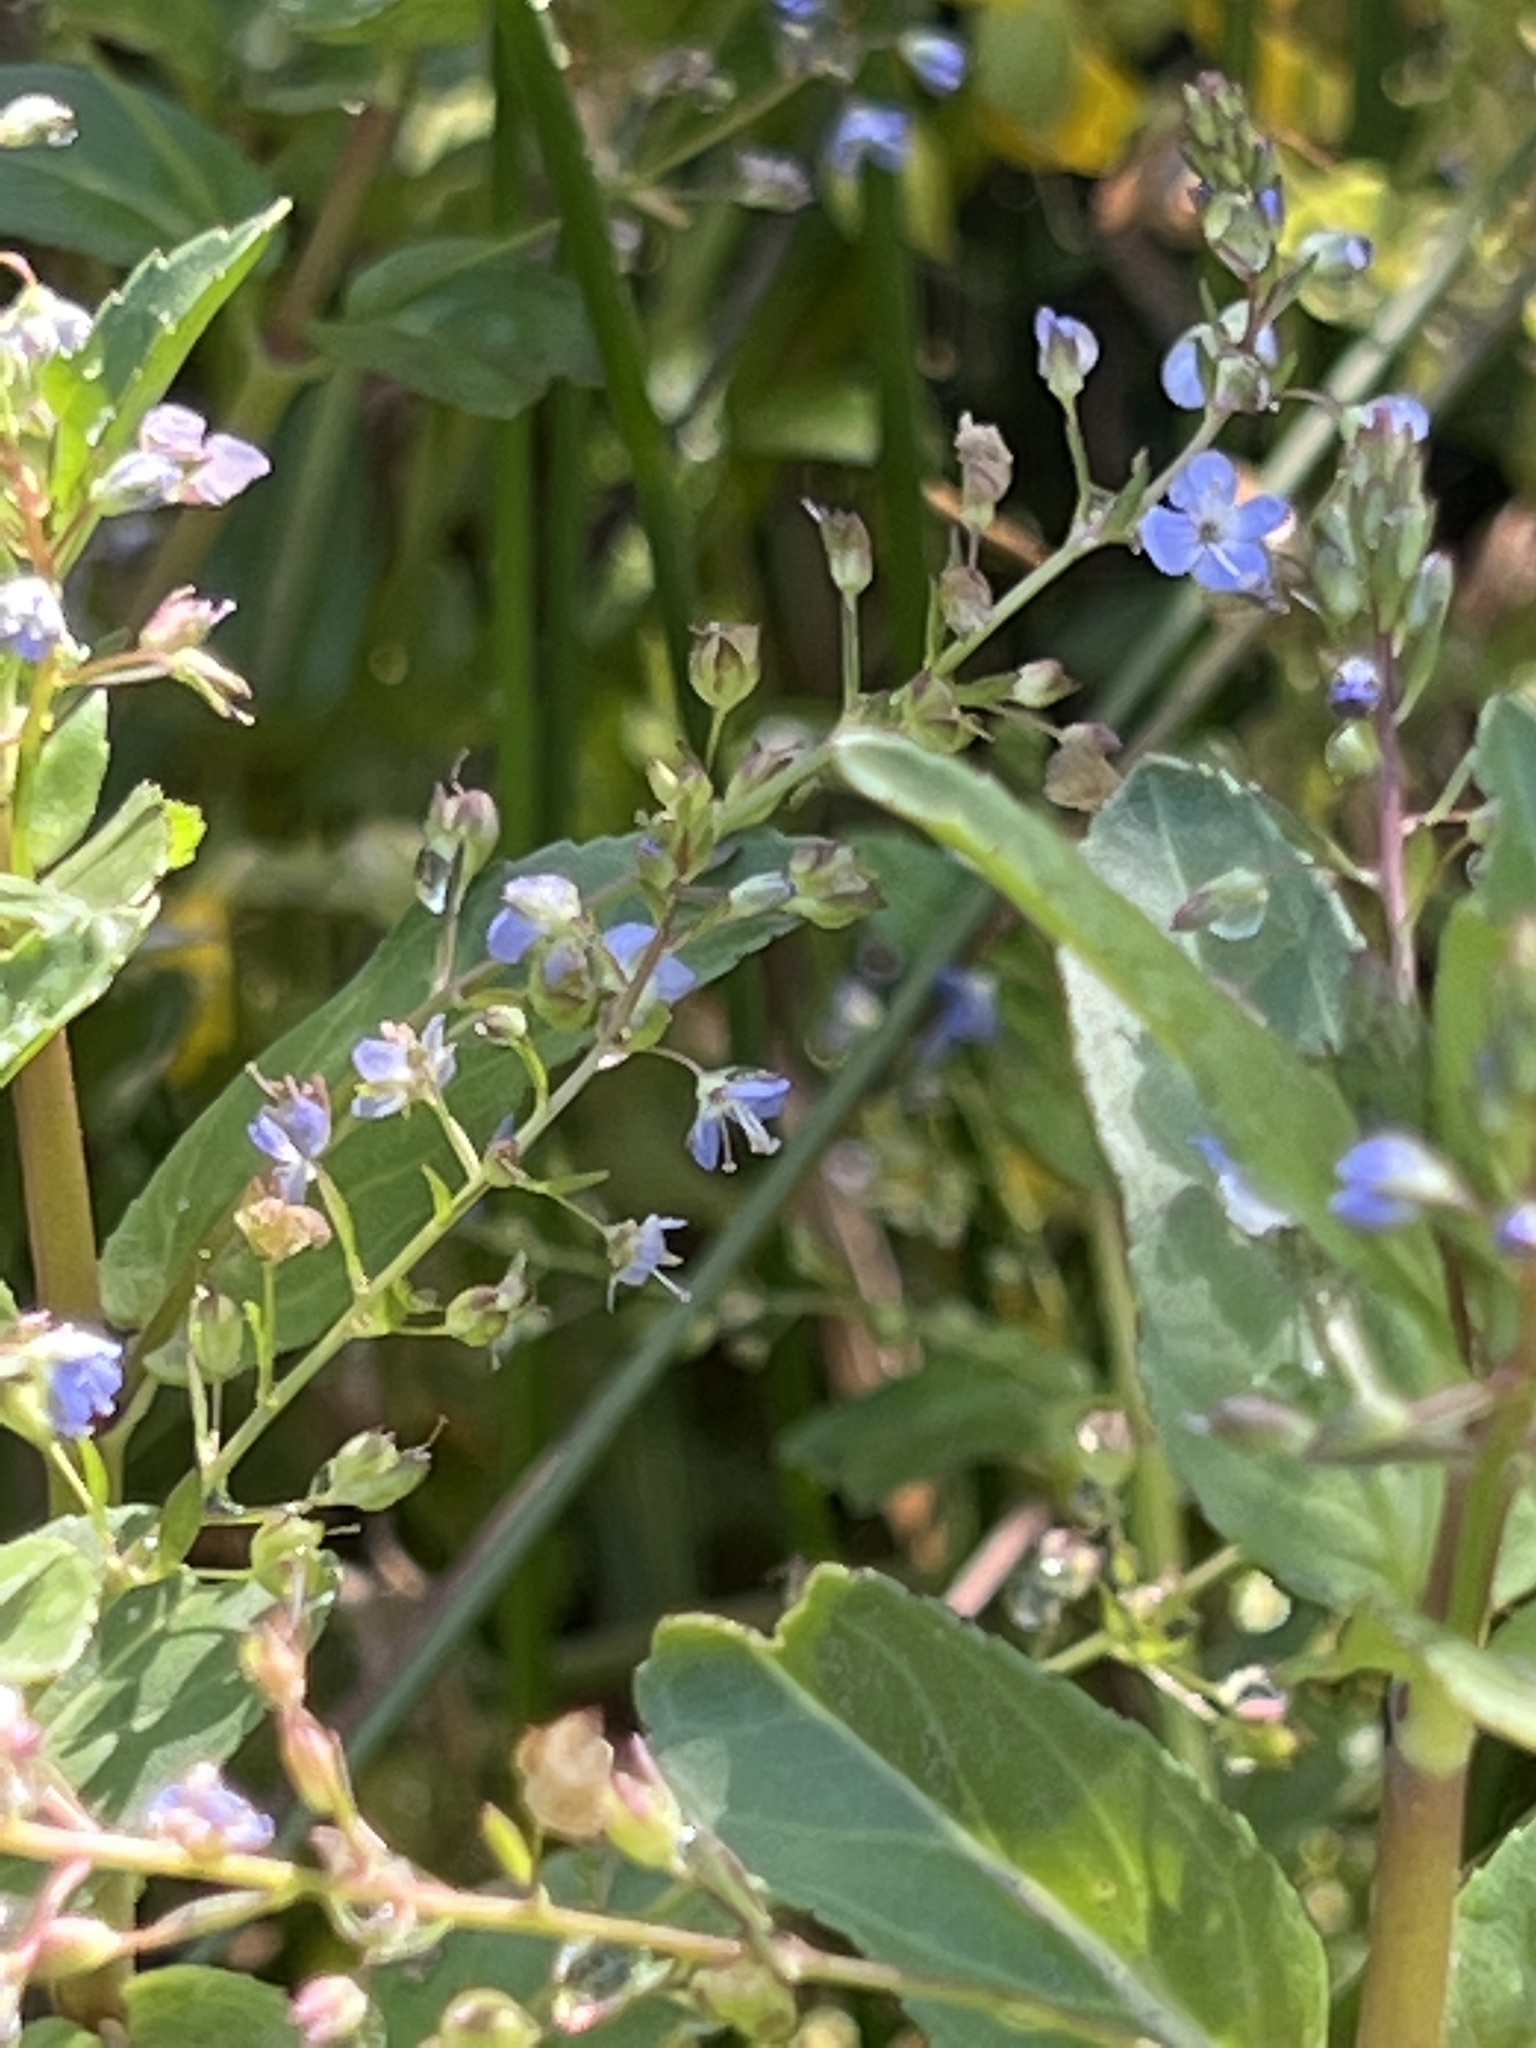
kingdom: Plantae
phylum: Tracheophyta
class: Magnoliopsida
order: Lamiales
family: Plantaginaceae
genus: Veronica
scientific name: Veronica americana
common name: American brooklime
